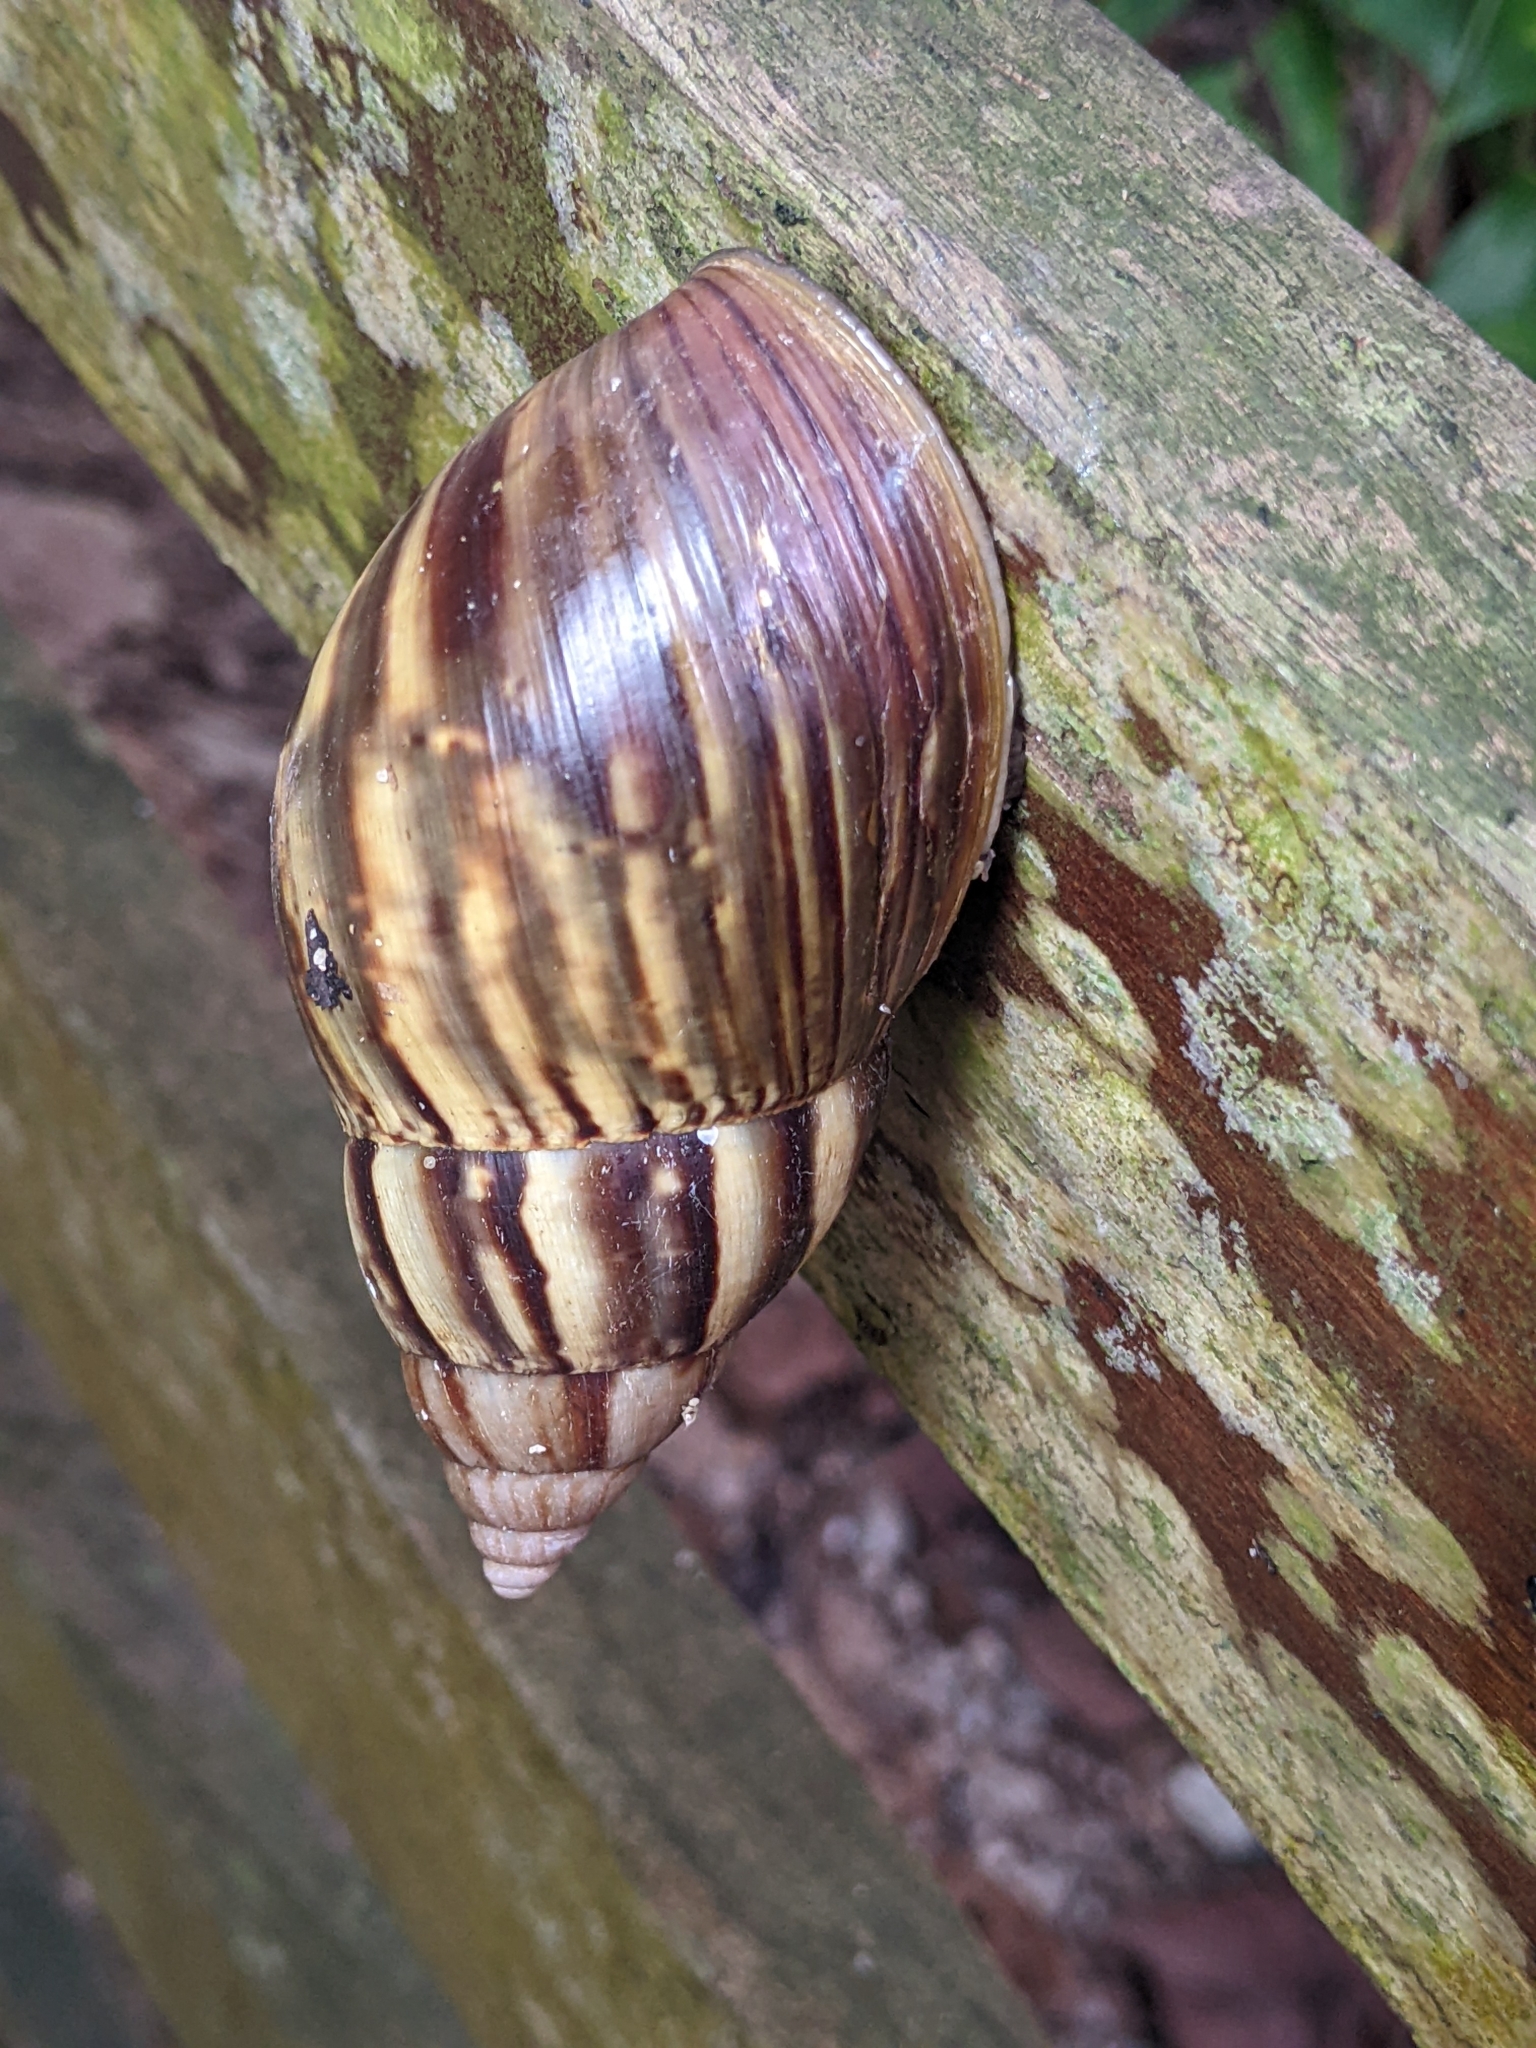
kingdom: Animalia
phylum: Mollusca
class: Gastropoda
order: Stylommatophora
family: Achatinidae
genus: Lissachatina
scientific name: Lissachatina fulica
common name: Giant african snail
